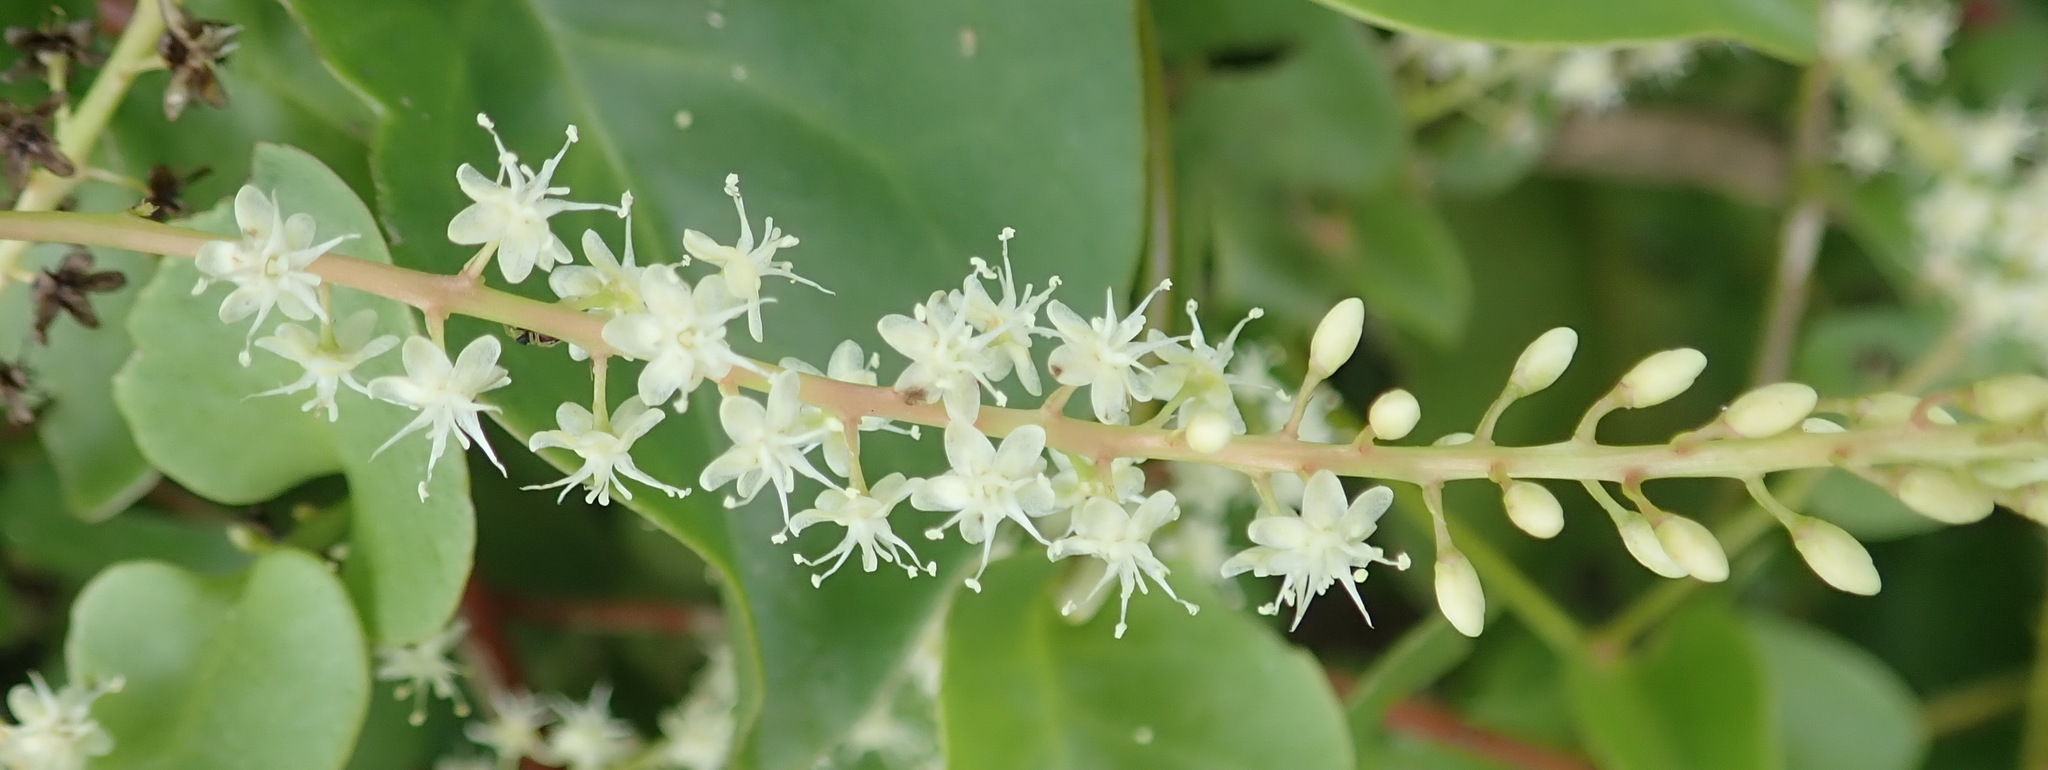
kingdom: Plantae
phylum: Tracheophyta
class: Magnoliopsida
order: Caryophyllales
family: Basellaceae
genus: Anredera
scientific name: Anredera cordifolia
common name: Heartleaf madeiravine
